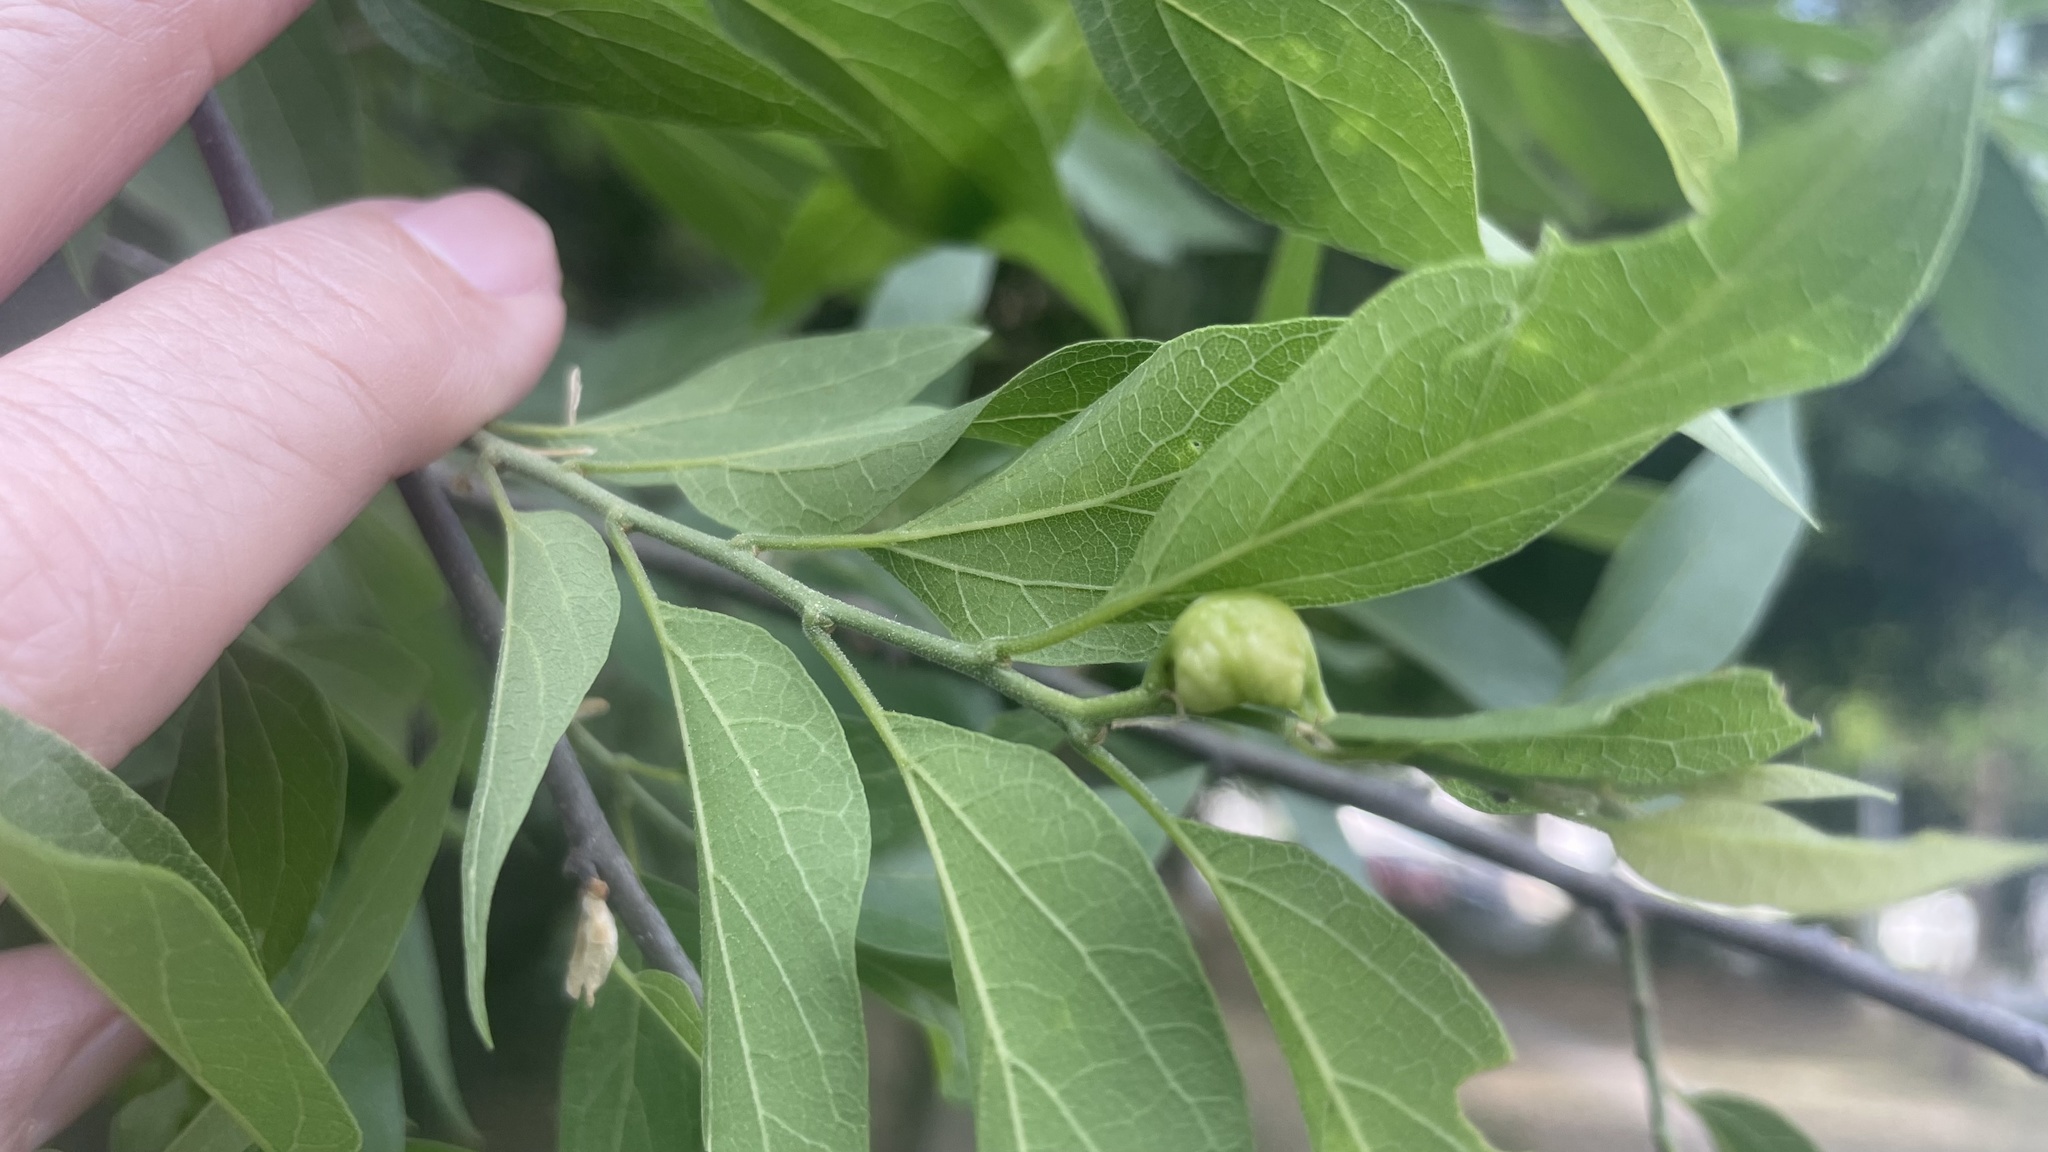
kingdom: Animalia
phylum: Arthropoda
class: Insecta
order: Hemiptera
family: Aphalaridae
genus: Pachypsylla
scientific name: Pachypsylla venusta
